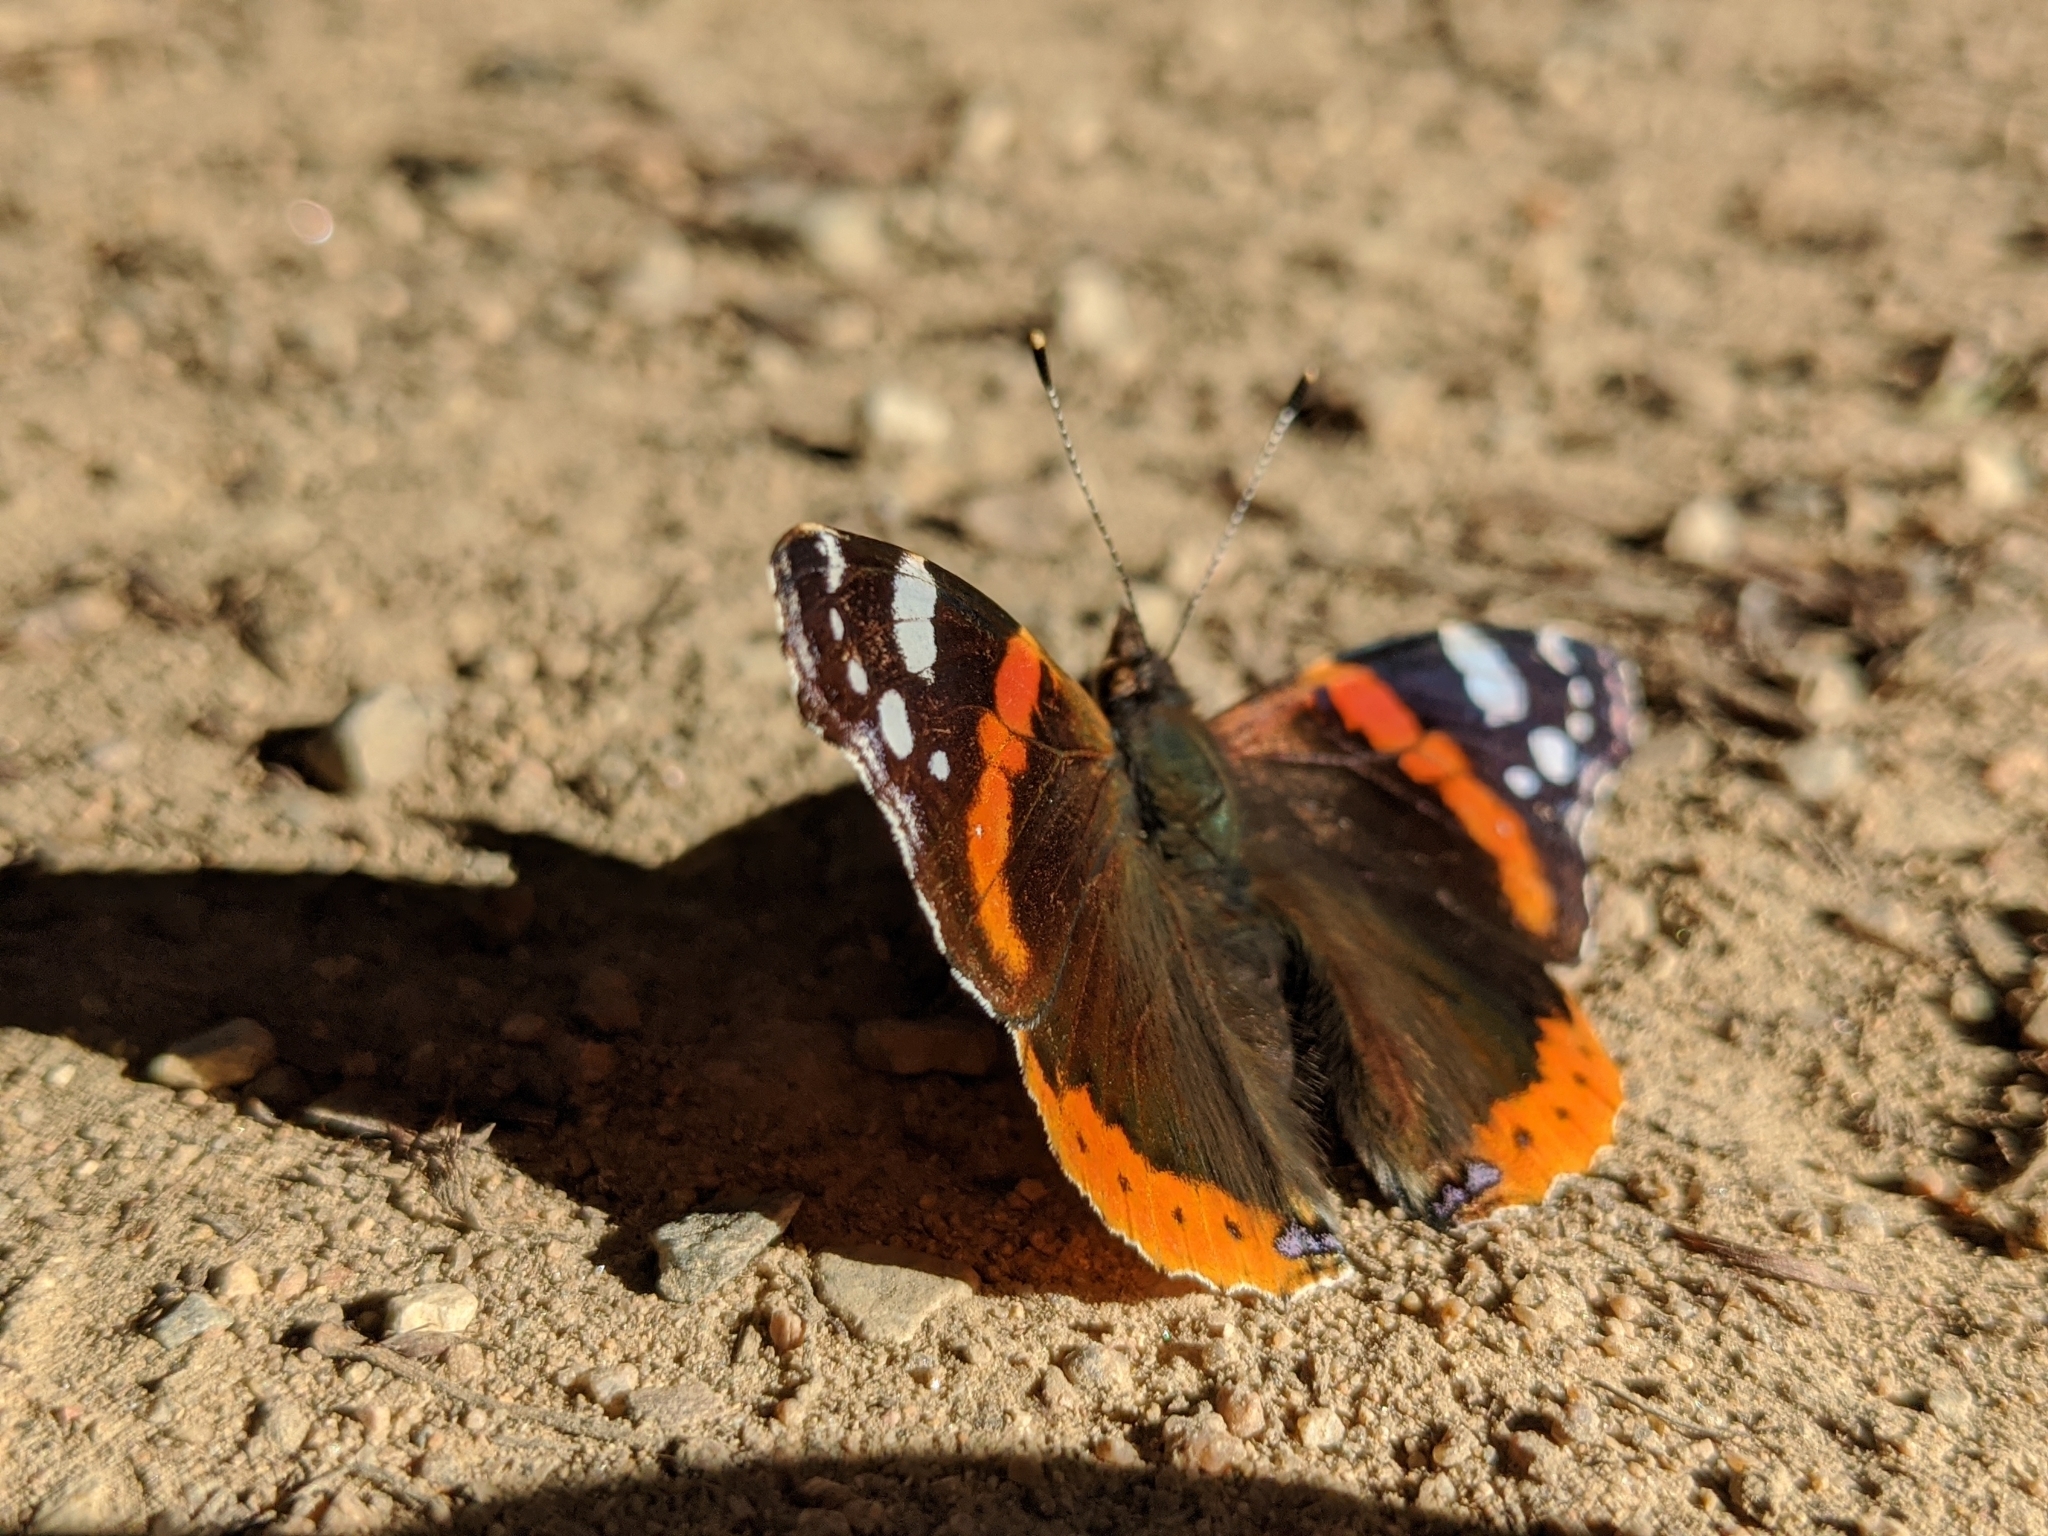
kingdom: Animalia
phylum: Arthropoda
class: Insecta
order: Lepidoptera
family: Nymphalidae
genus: Vanessa
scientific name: Vanessa atalanta
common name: Red admiral
